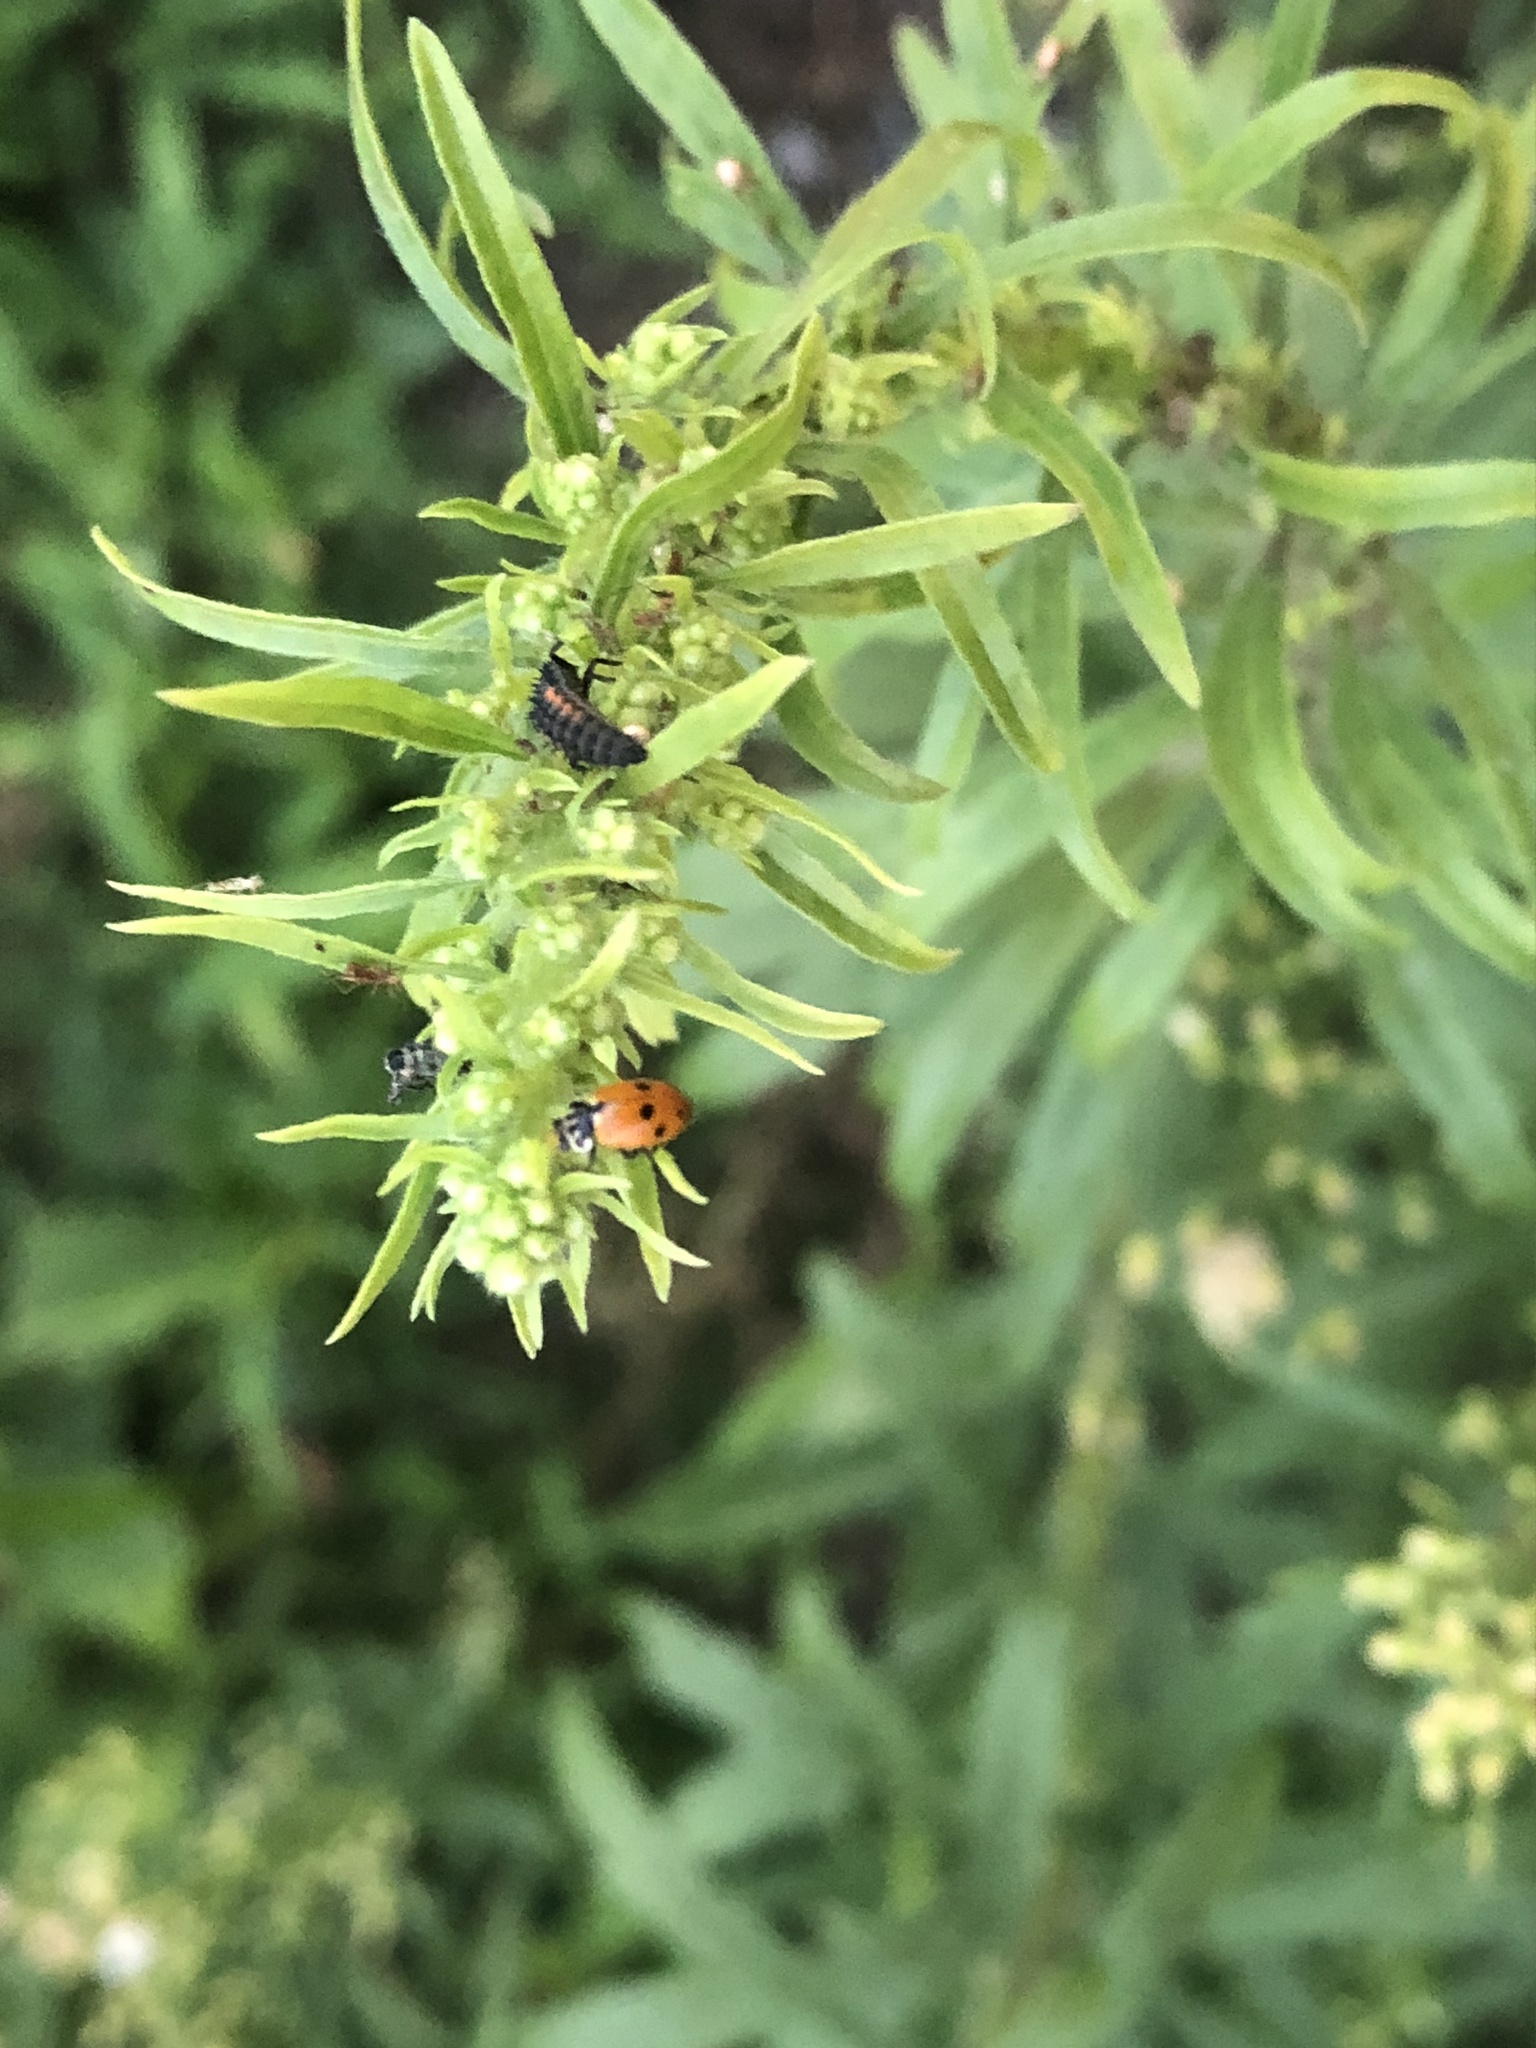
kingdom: Animalia
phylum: Arthropoda
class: Insecta
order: Coleoptera
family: Coccinellidae
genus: Hippodamia
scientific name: Hippodamia variegata
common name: Ladybird beetle
